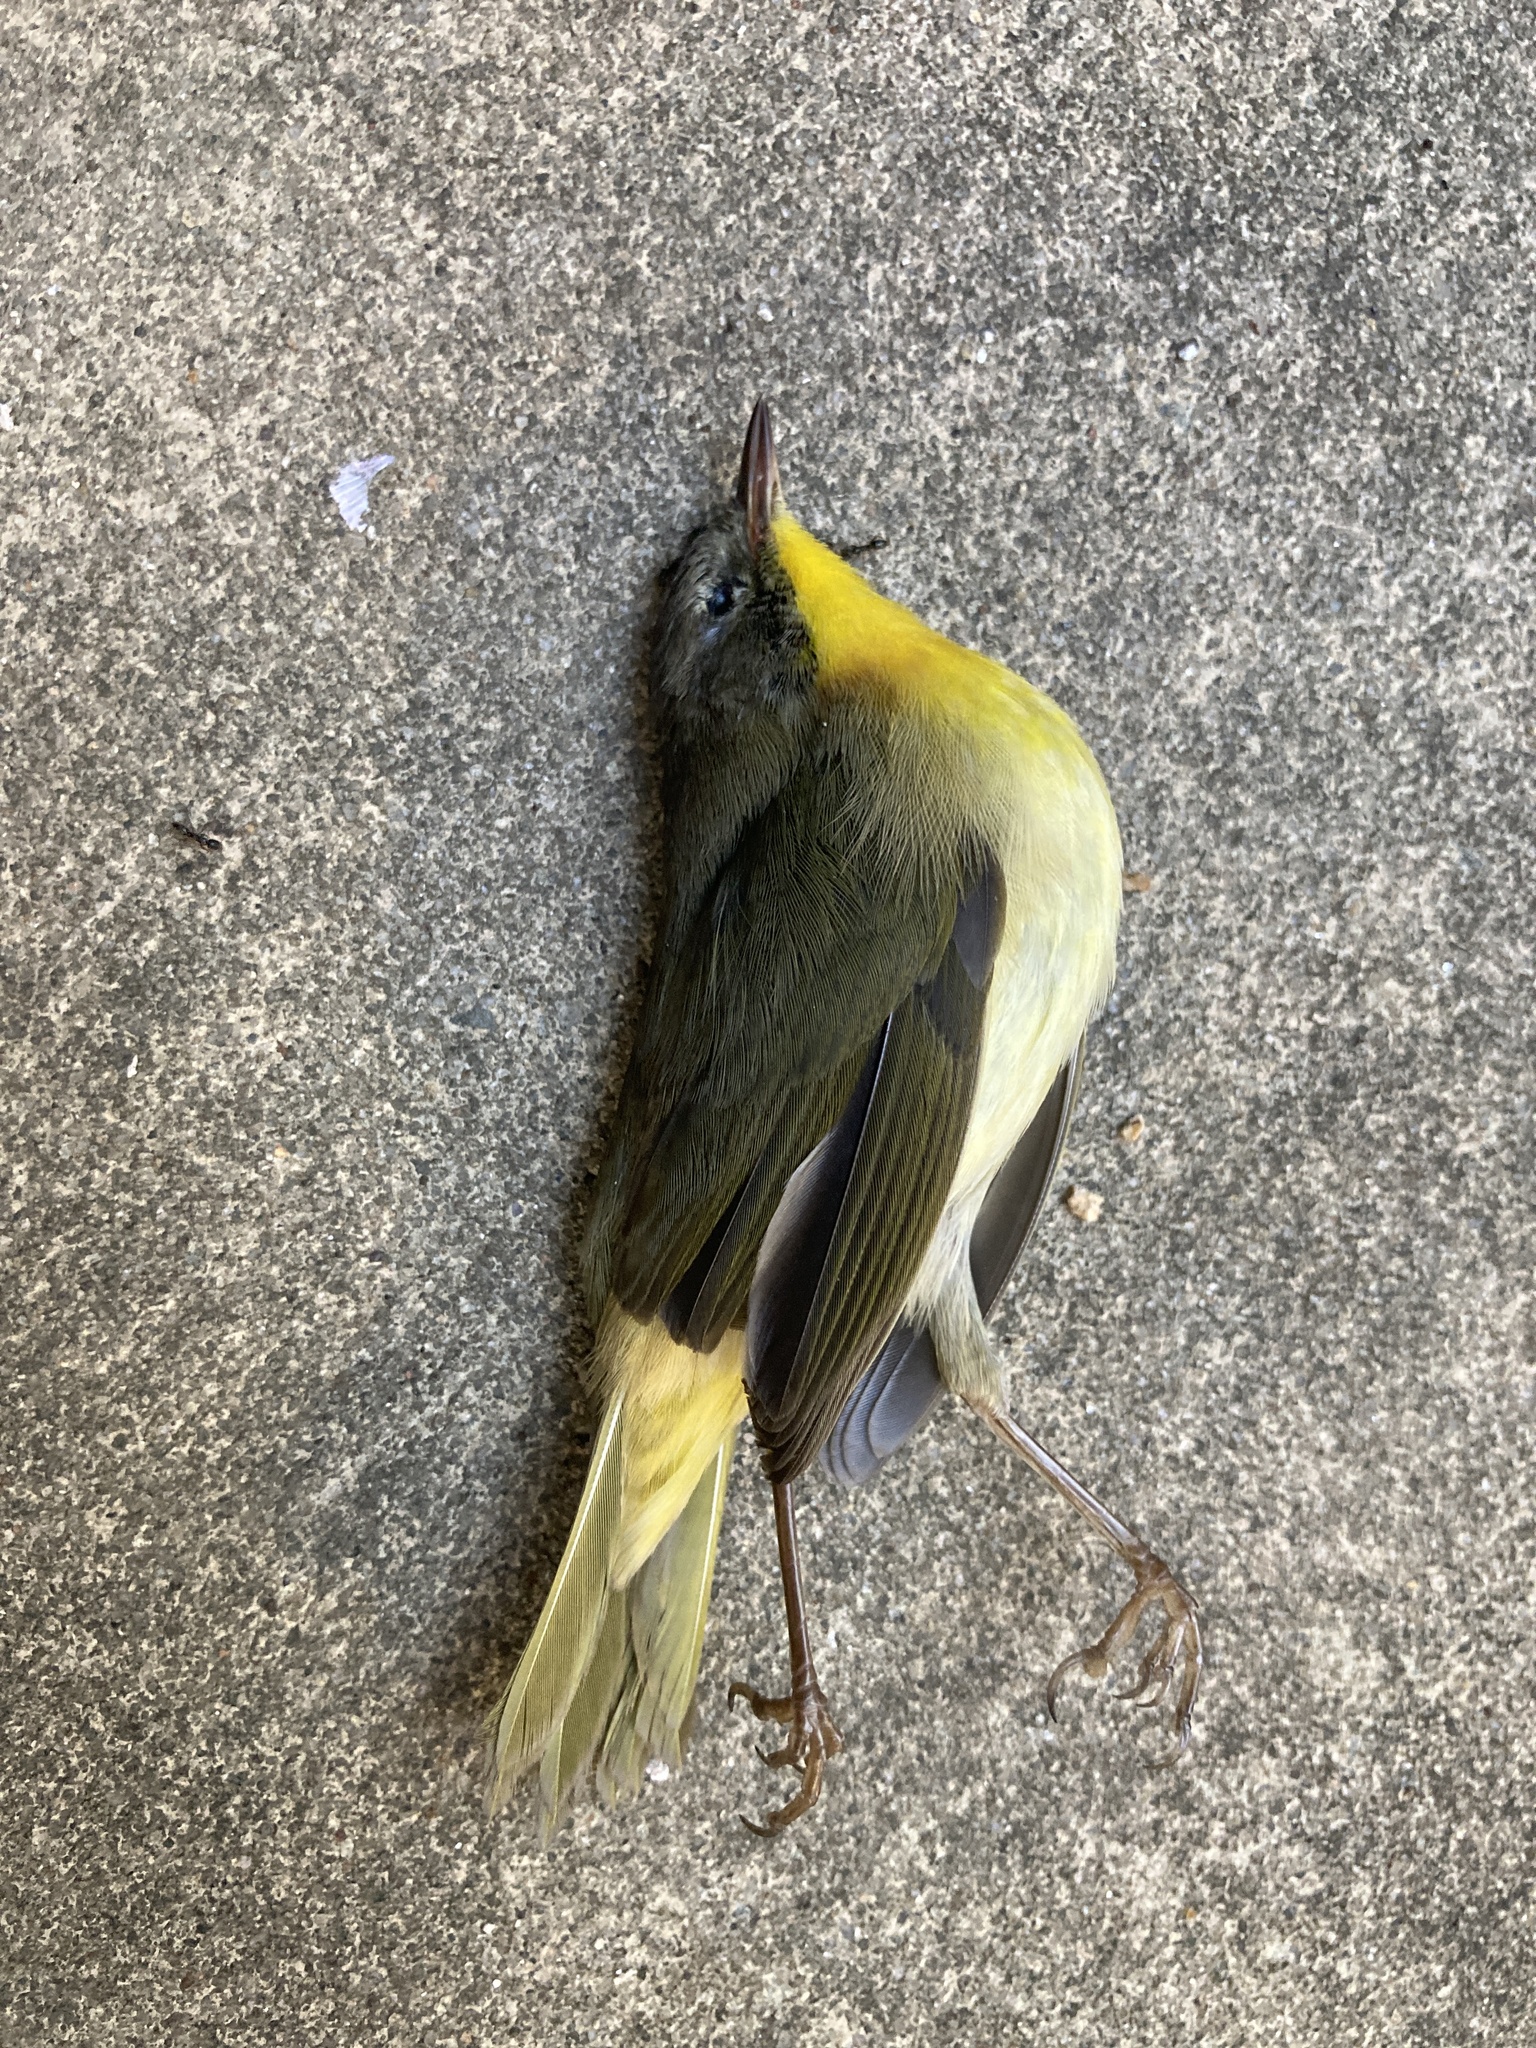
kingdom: Animalia
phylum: Chordata
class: Aves
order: Passeriformes
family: Parulidae
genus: Geothlypis
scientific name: Geothlypis trichas
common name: Common yellowthroat
